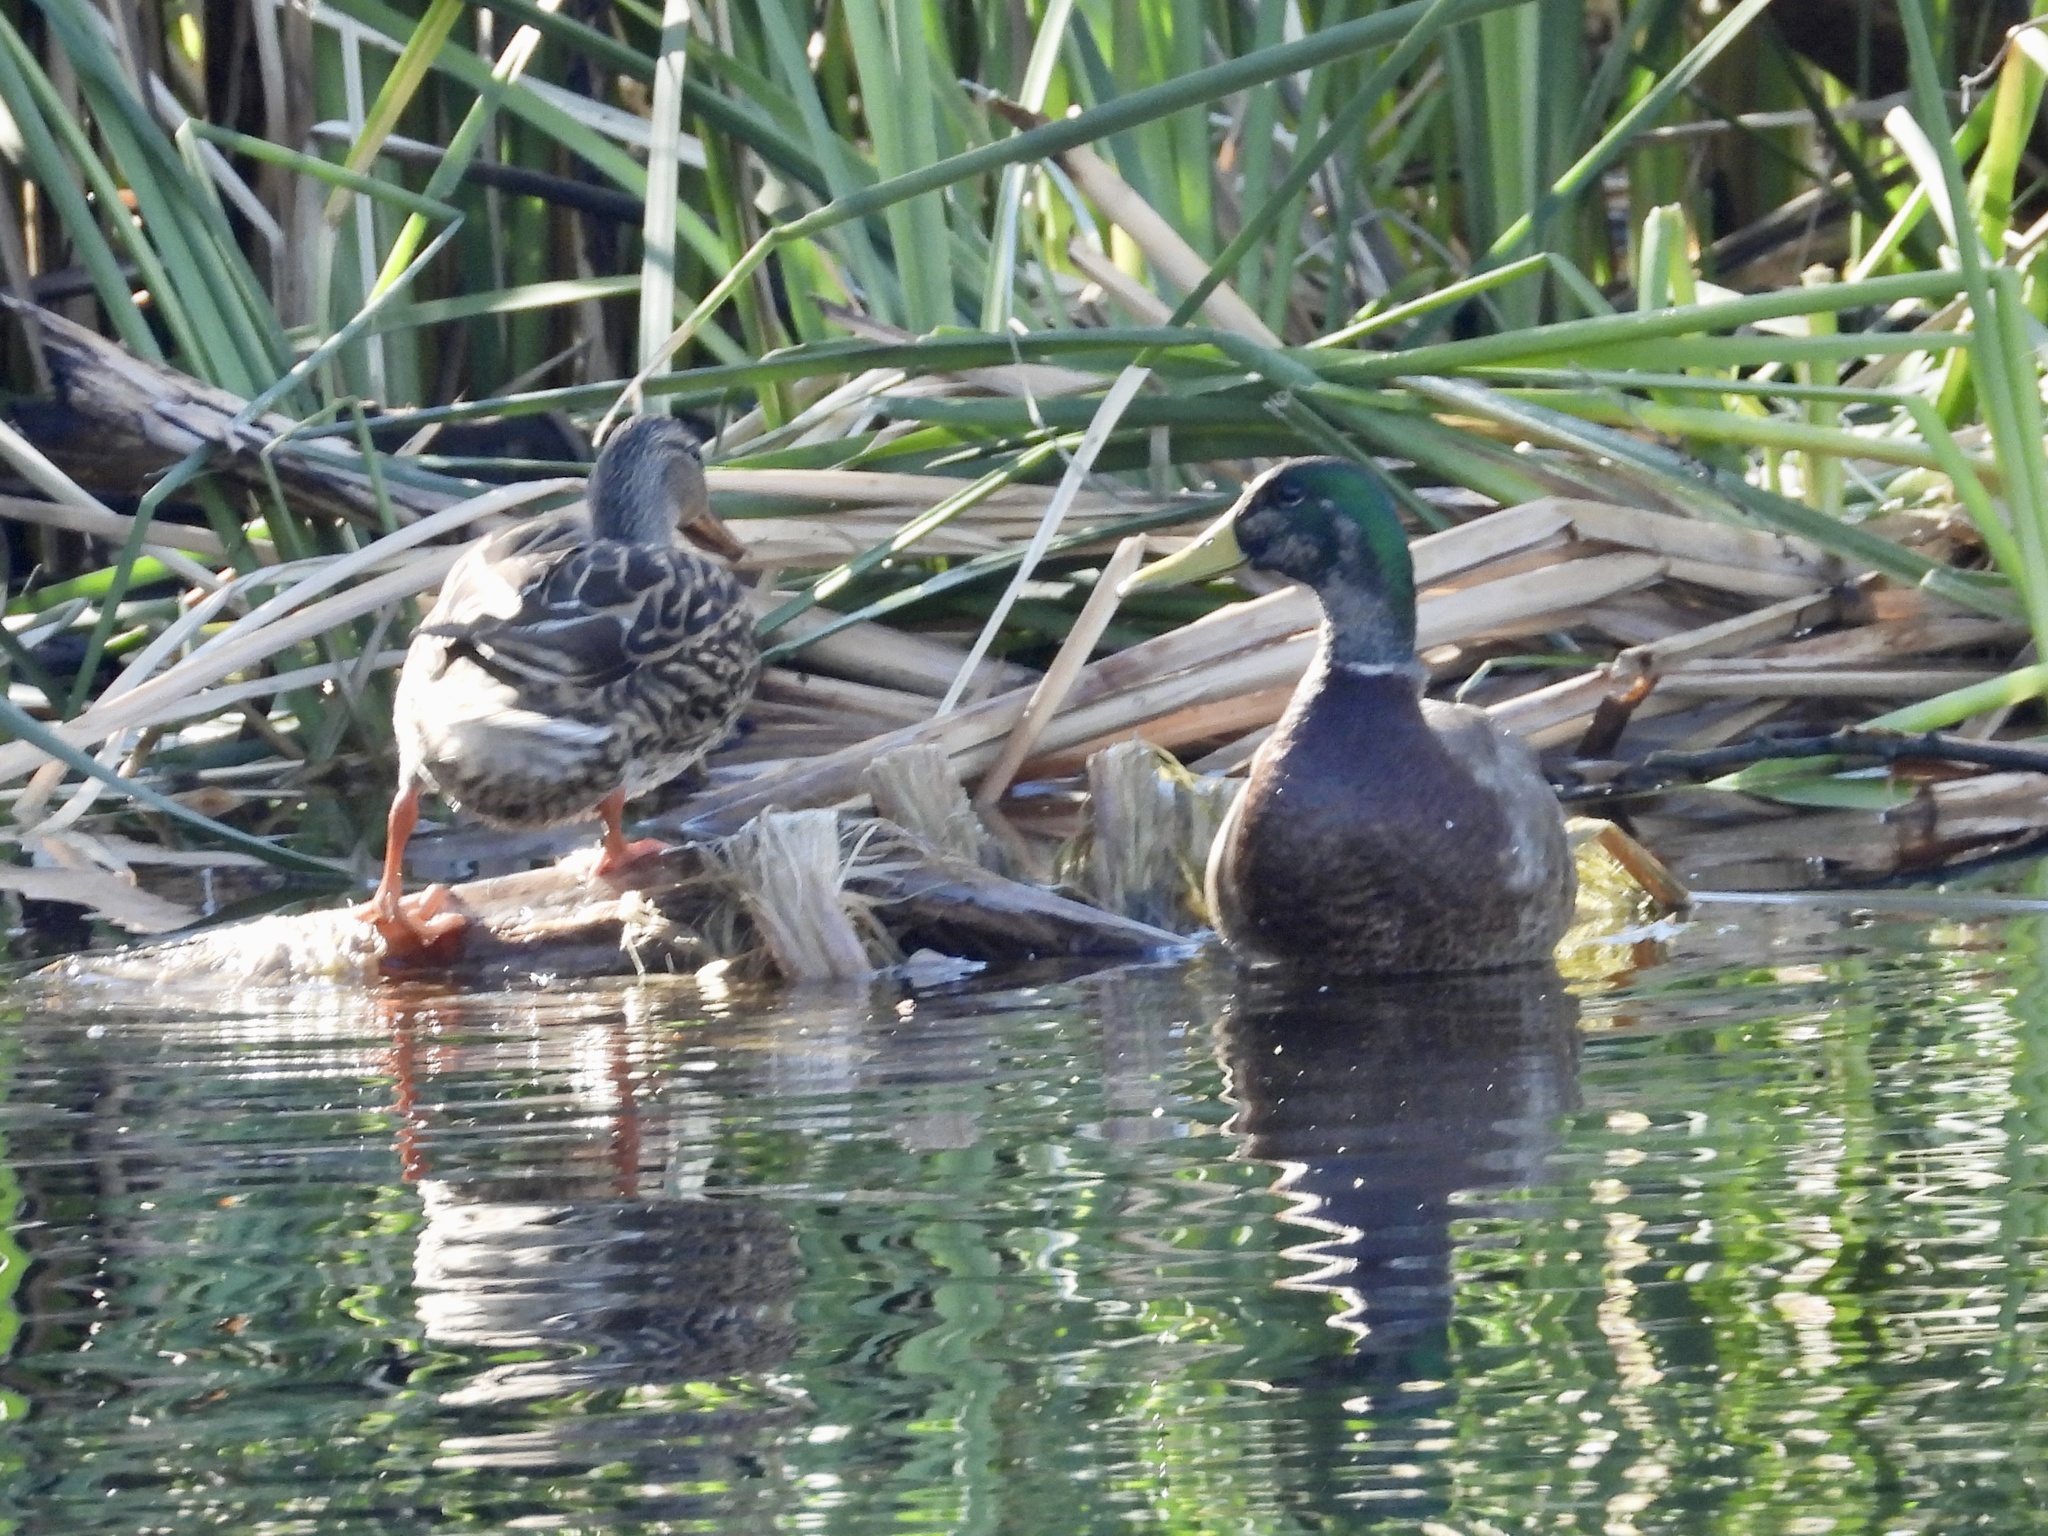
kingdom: Animalia
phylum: Chordata
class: Aves
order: Anseriformes
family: Anatidae
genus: Anas
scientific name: Anas platyrhynchos
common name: Mallard
